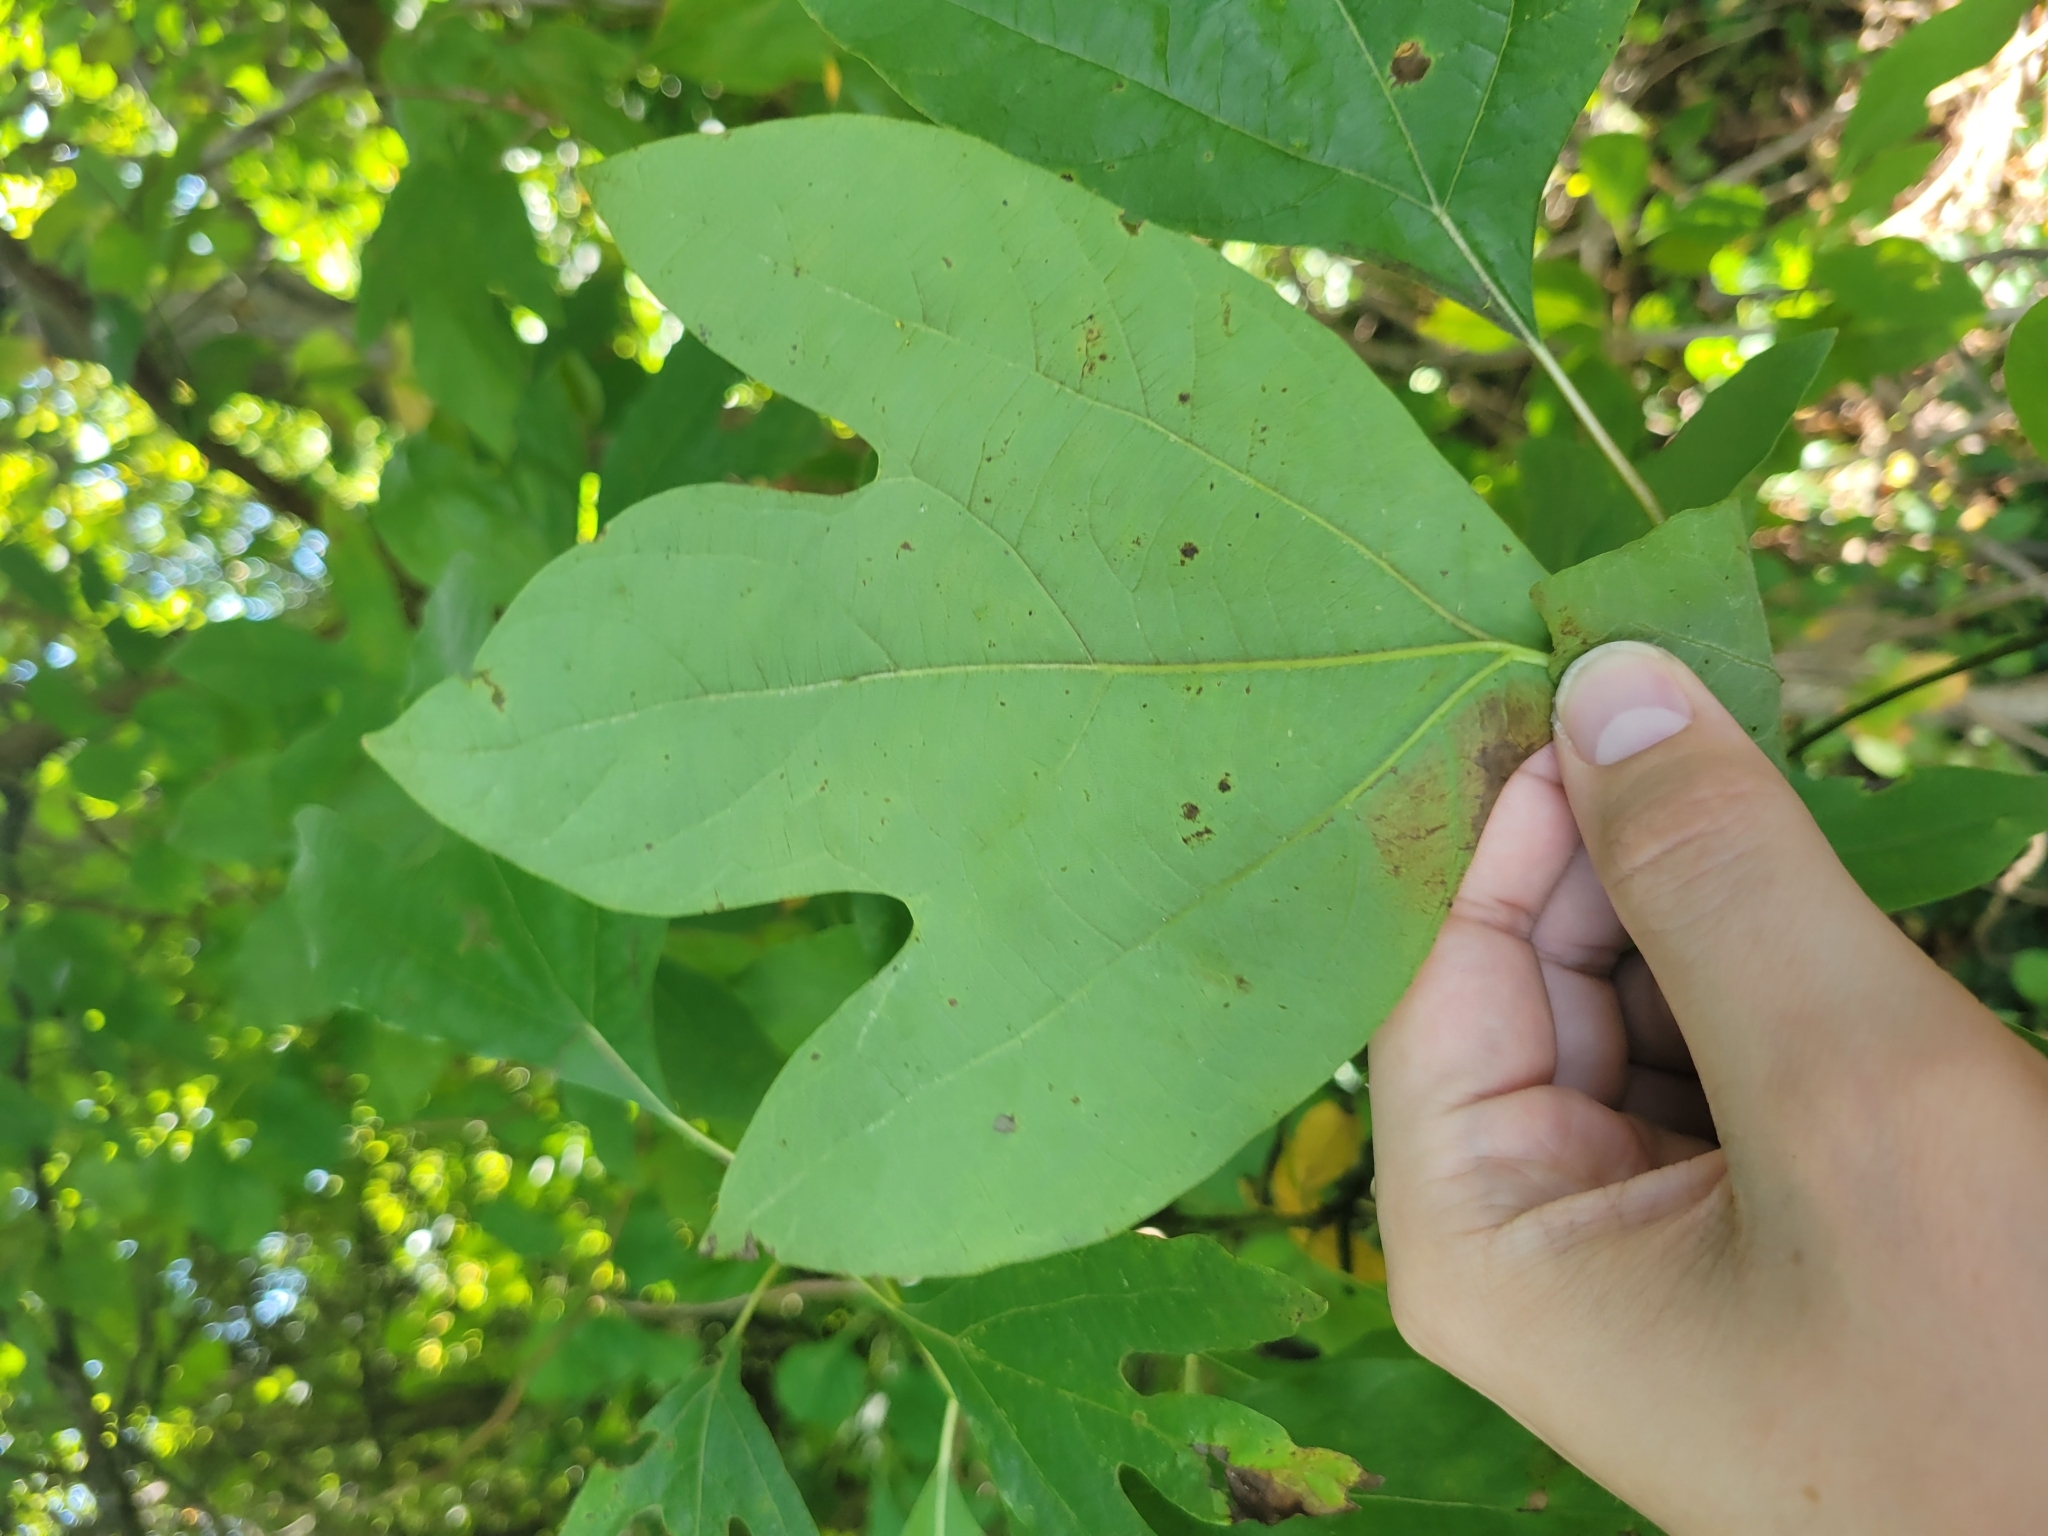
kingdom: Plantae
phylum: Tracheophyta
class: Magnoliopsida
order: Laurales
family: Lauraceae
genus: Sassafras
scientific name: Sassafras albidum
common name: Sassafras
